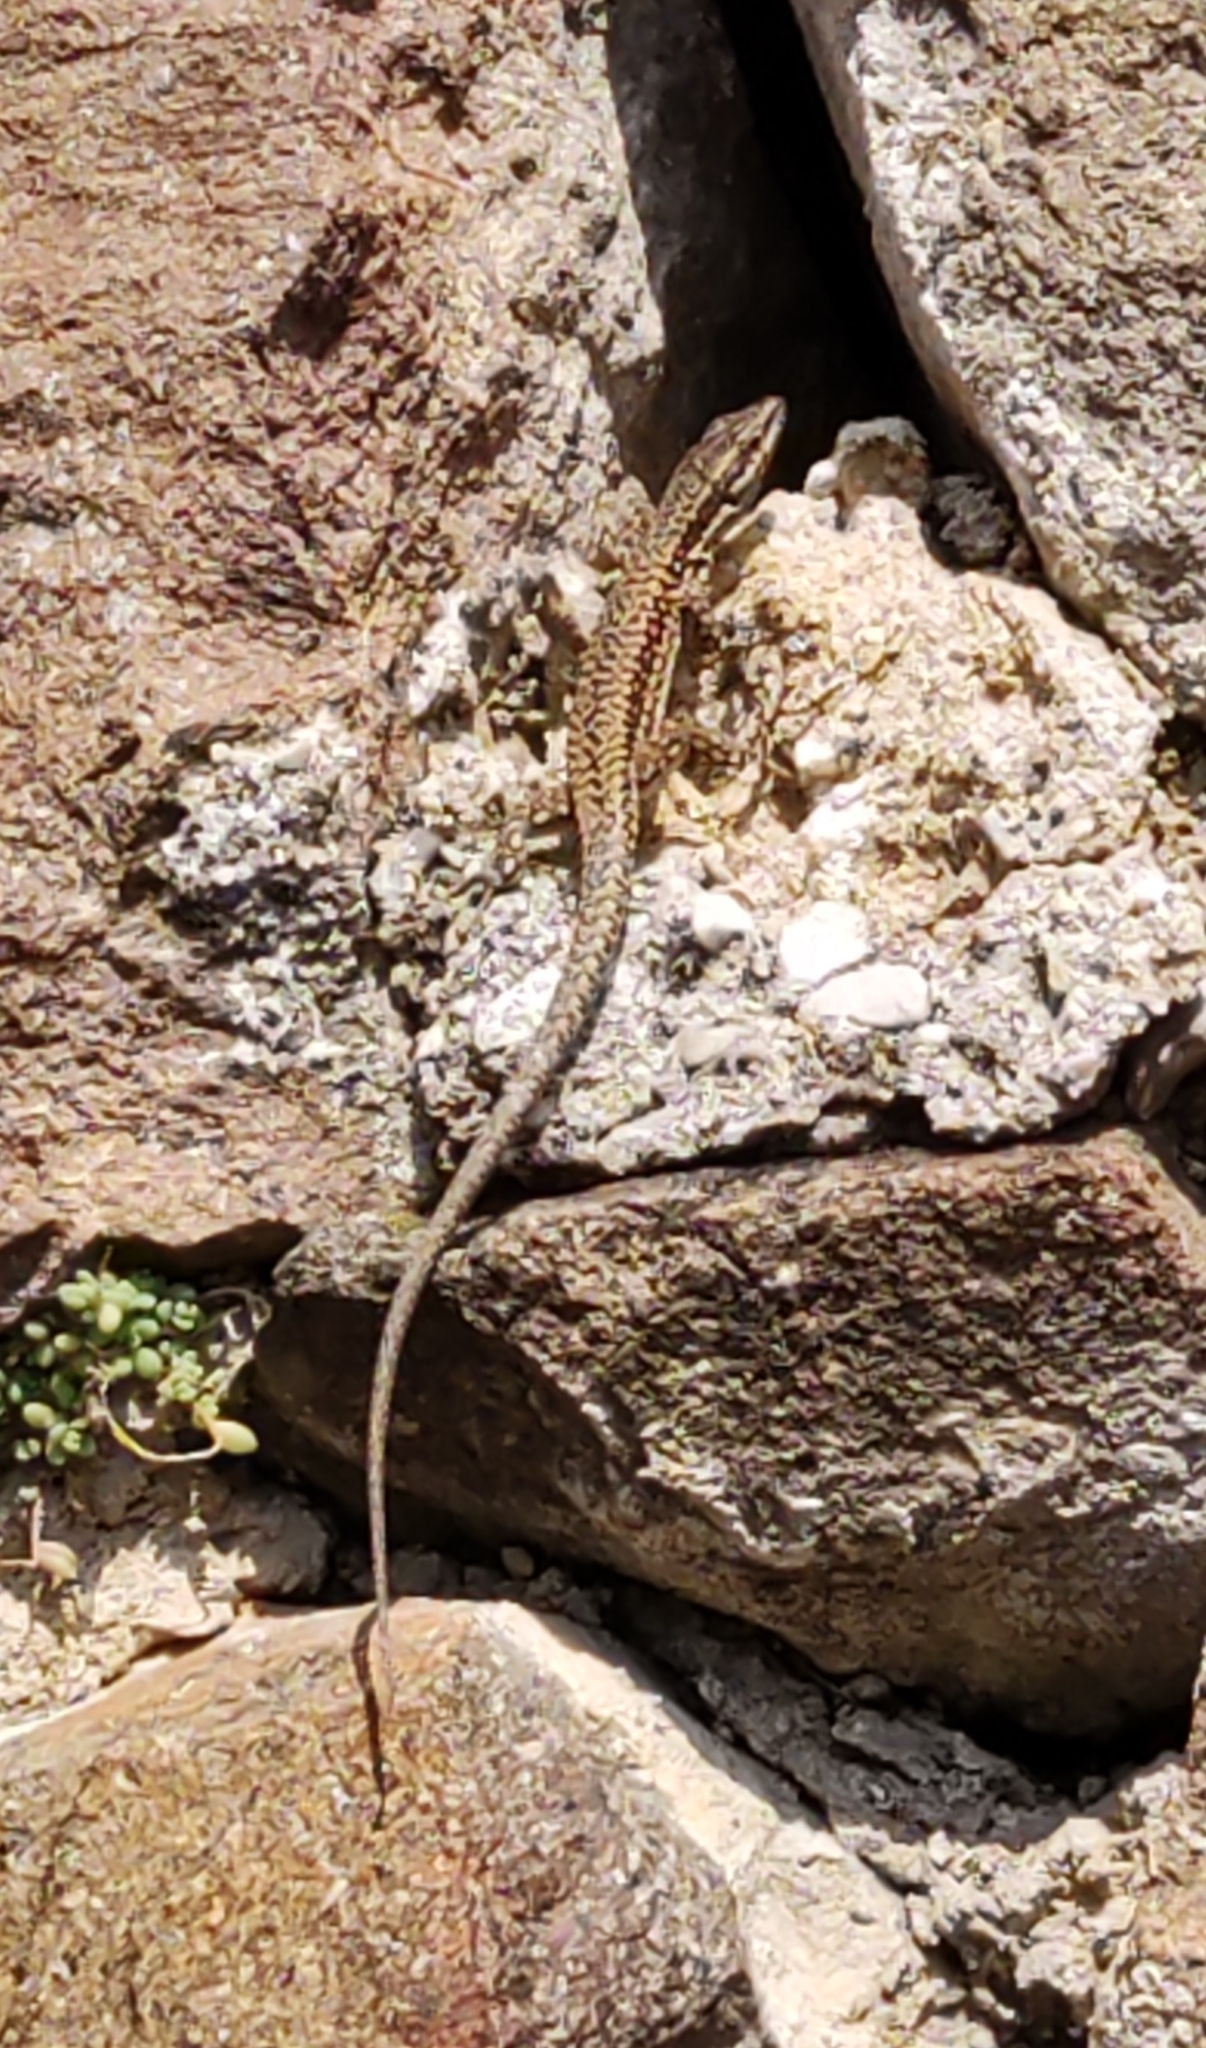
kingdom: Animalia
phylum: Chordata
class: Squamata
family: Lacertidae
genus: Podarcis
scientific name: Podarcis muralis
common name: Common wall lizard
